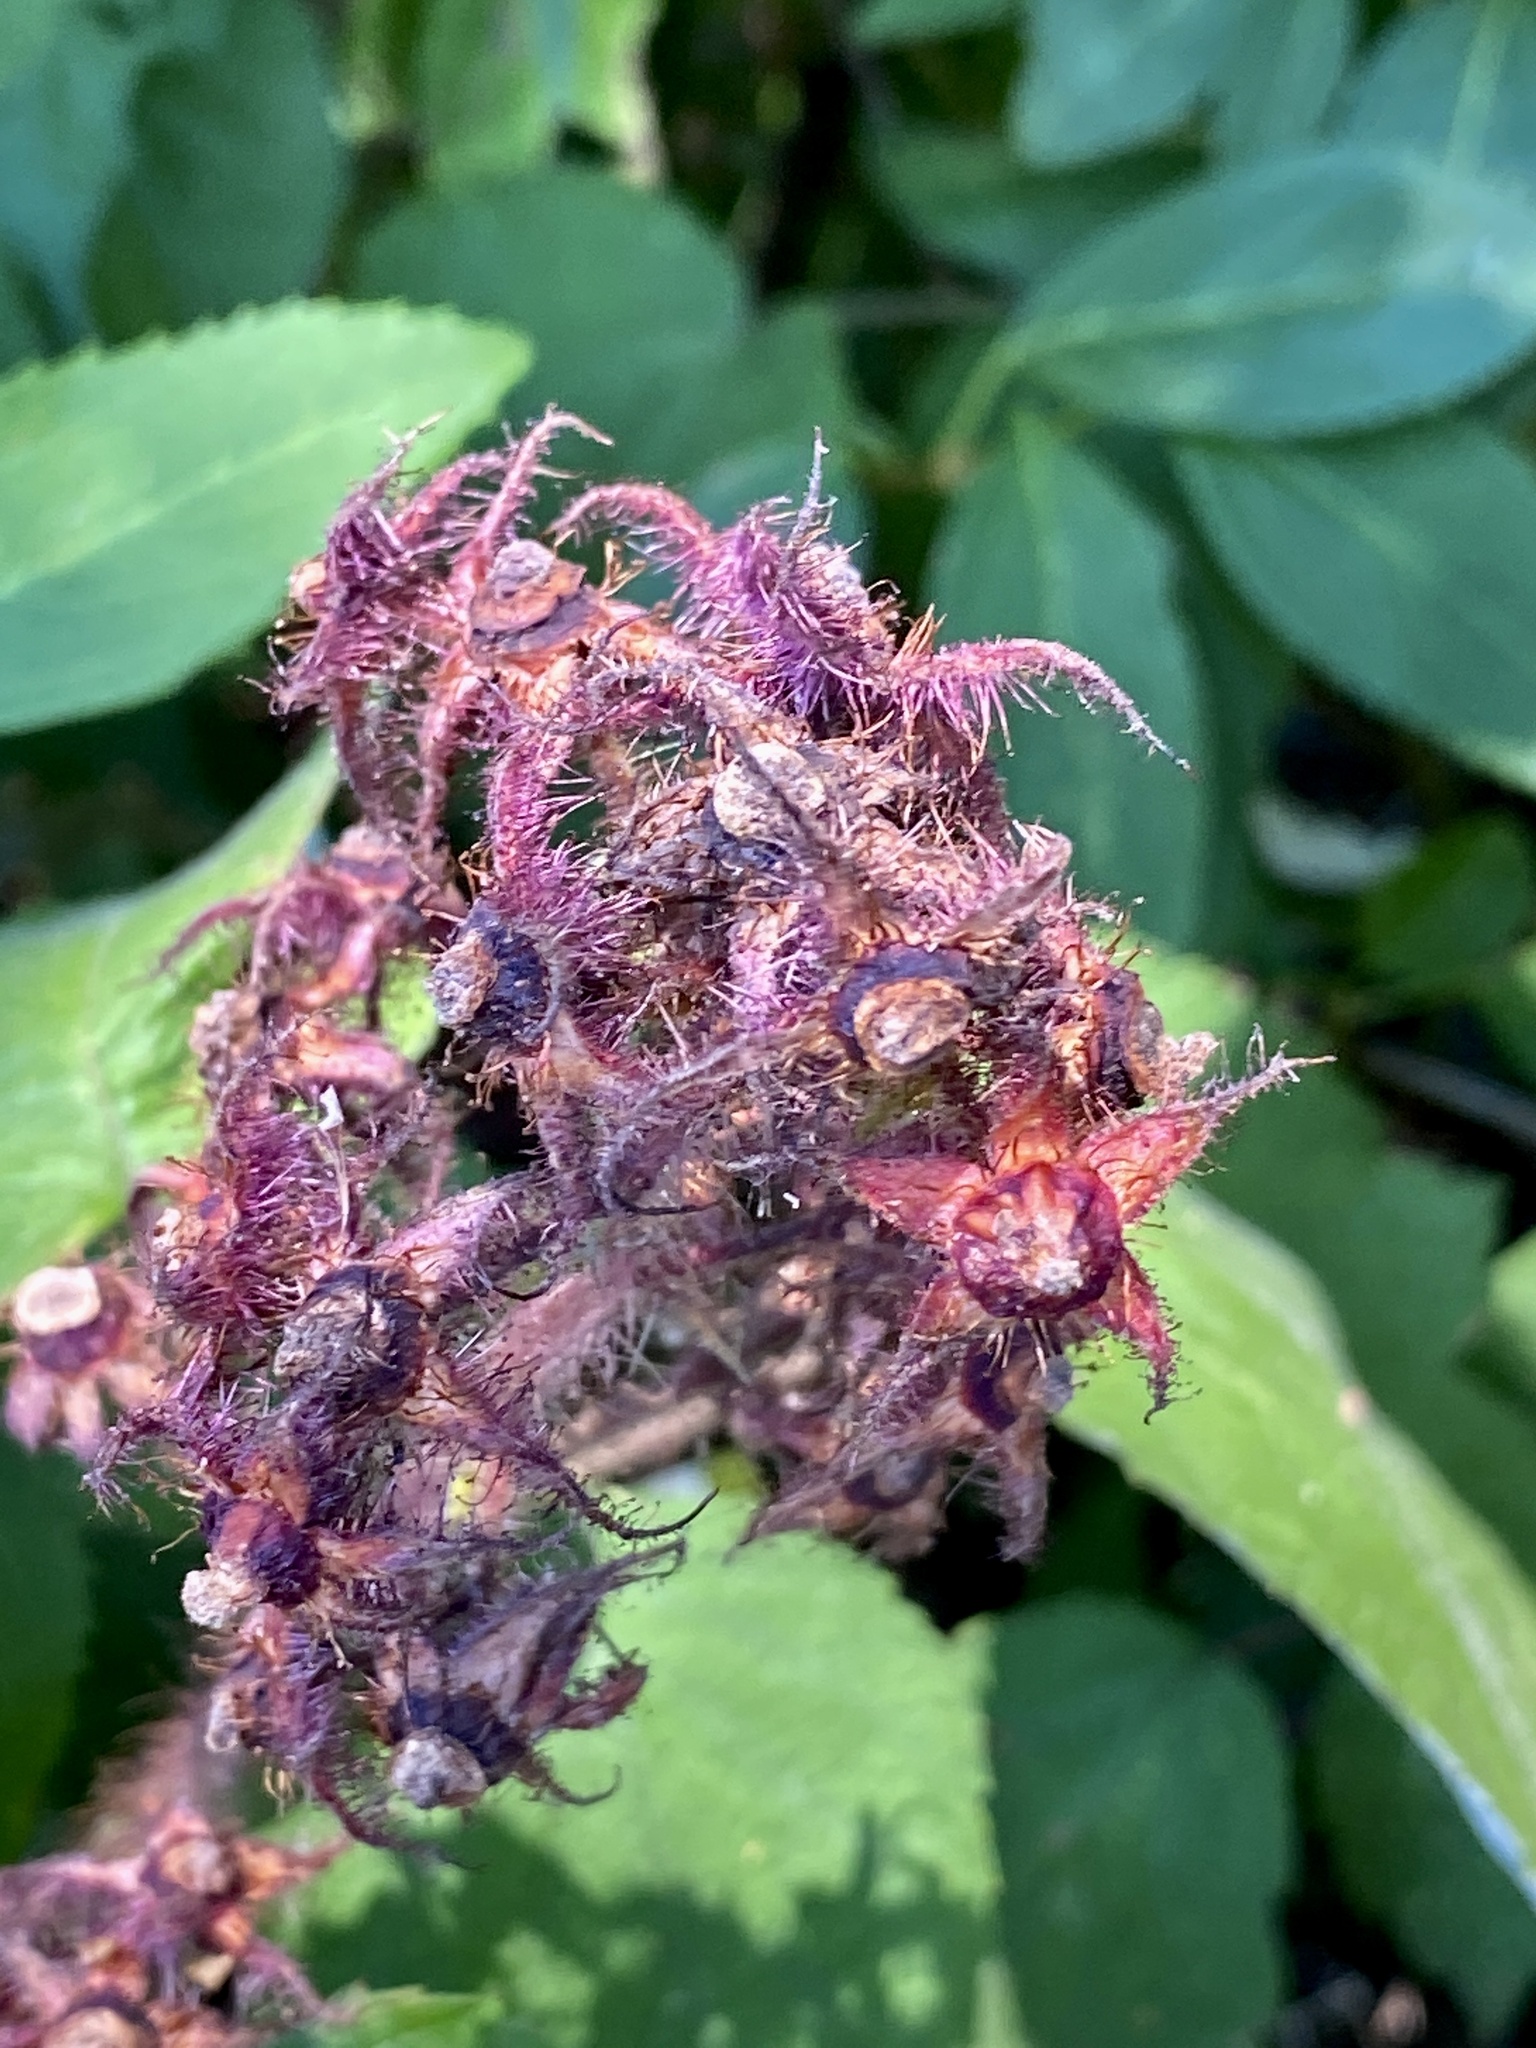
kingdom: Plantae
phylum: Tracheophyta
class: Magnoliopsida
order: Rosales
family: Rosaceae
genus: Rubus
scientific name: Rubus phoenicolasius
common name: Japanese wineberry
